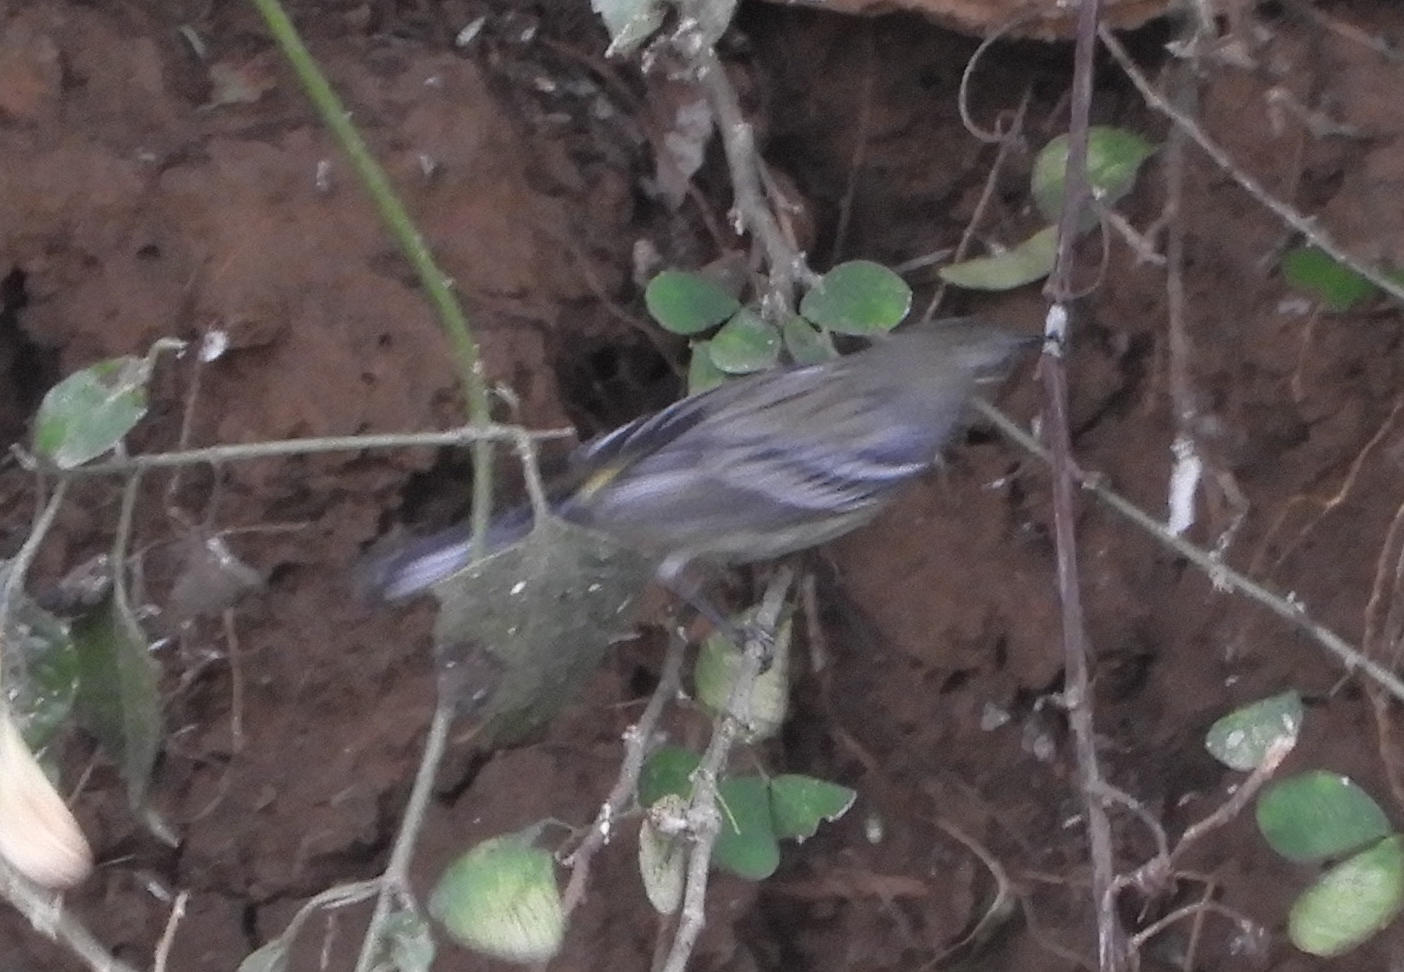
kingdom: Animalia
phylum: Chordata
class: Aves
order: Passeriformes
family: Parulidae
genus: Setophaga
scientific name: Setophaga coronata
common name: Myrtle warbler
